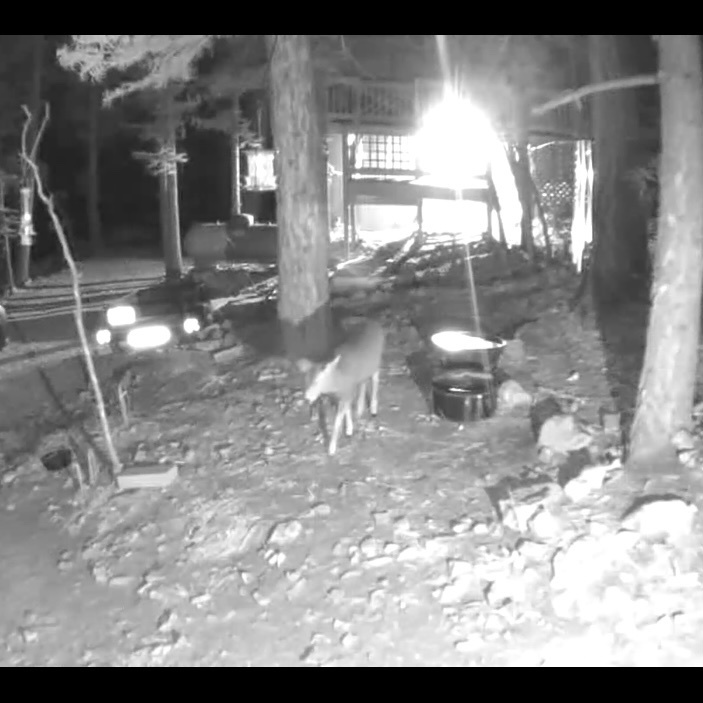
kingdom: Animalia
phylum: Chordata
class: Mammalia
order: Artiodactyla
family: Cervidae
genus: Odocoileus
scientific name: Odocoileus hemionus
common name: Mule deer
